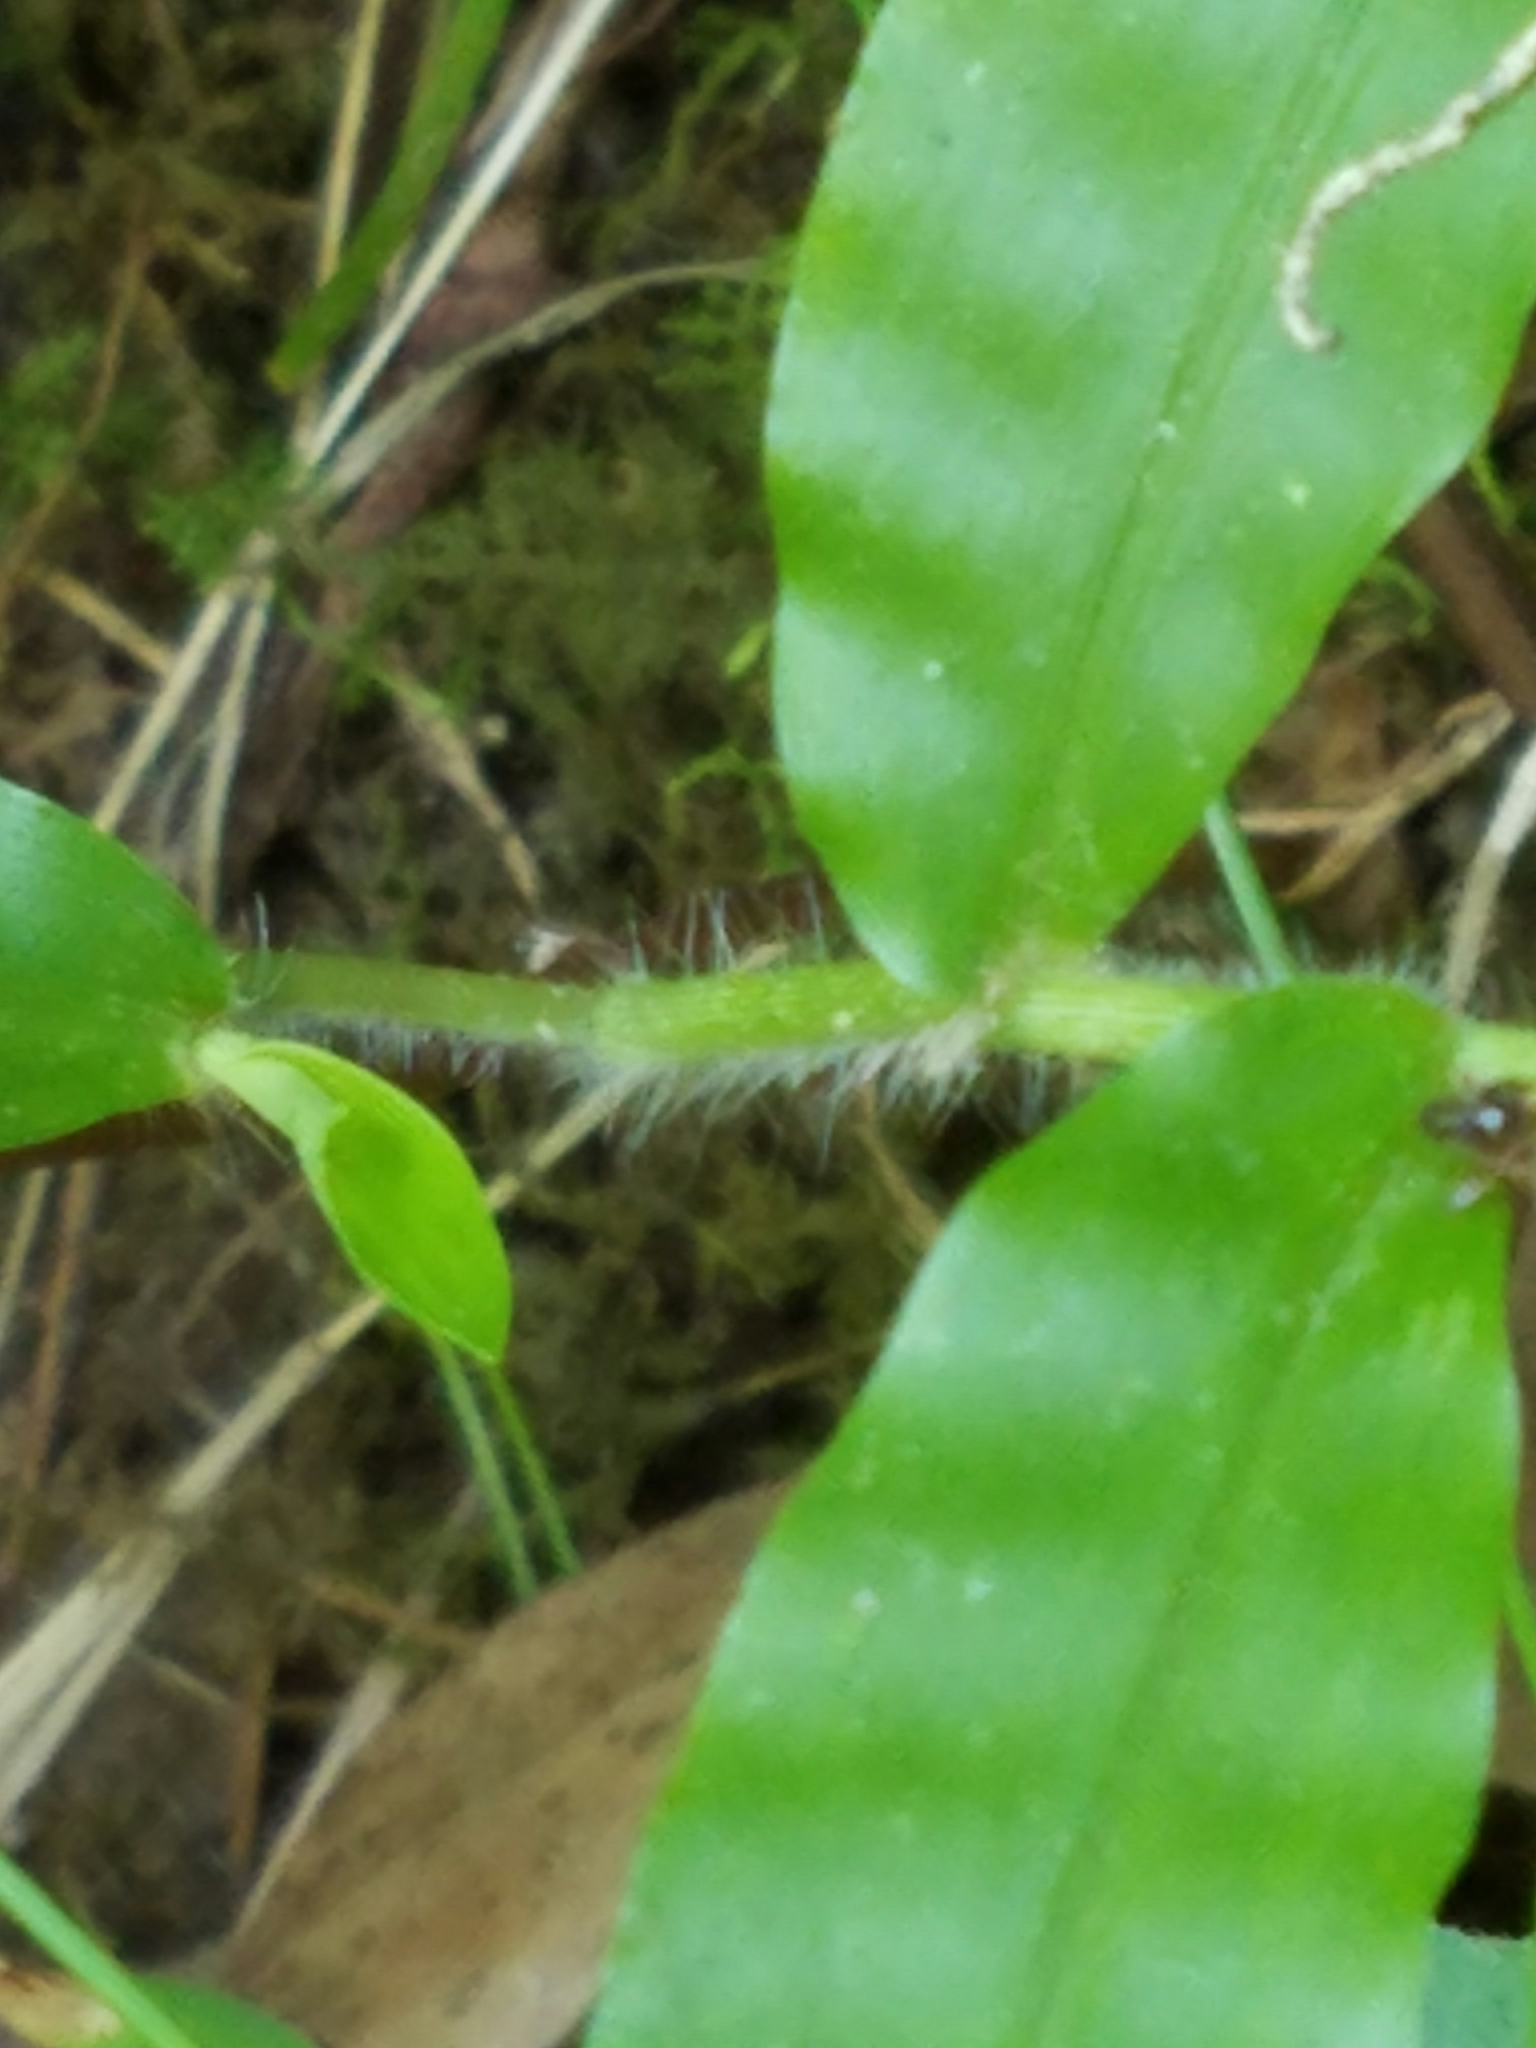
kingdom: Plantae
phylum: Tracheophyta
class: Liliopsida
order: Poales
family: Poaceae
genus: Oplismenus
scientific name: Oplismenus undulatifolius
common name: Wavyleaf basketgrass
